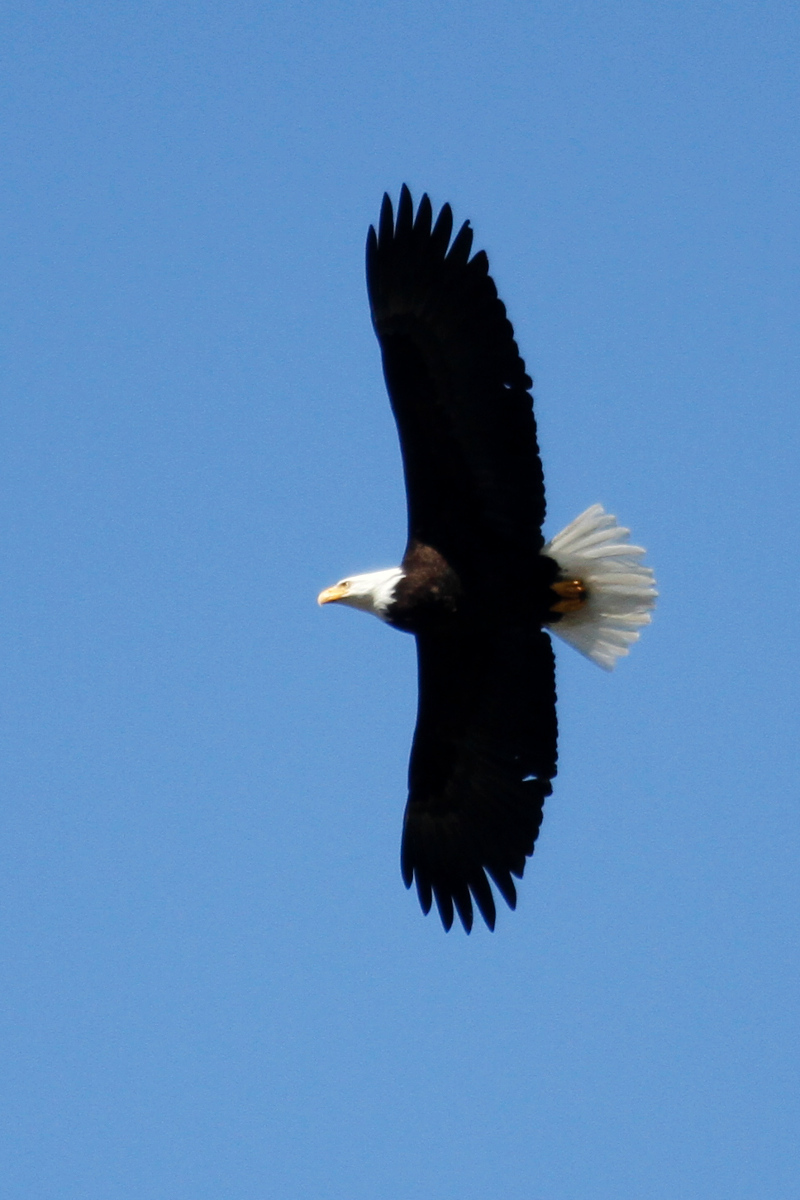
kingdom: Animalia
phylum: Chordata
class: Aves
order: Accipitriformes
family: Accipitridae
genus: Haliaeetus
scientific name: Haliaeetus leucocephalus
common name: Bald eagle
